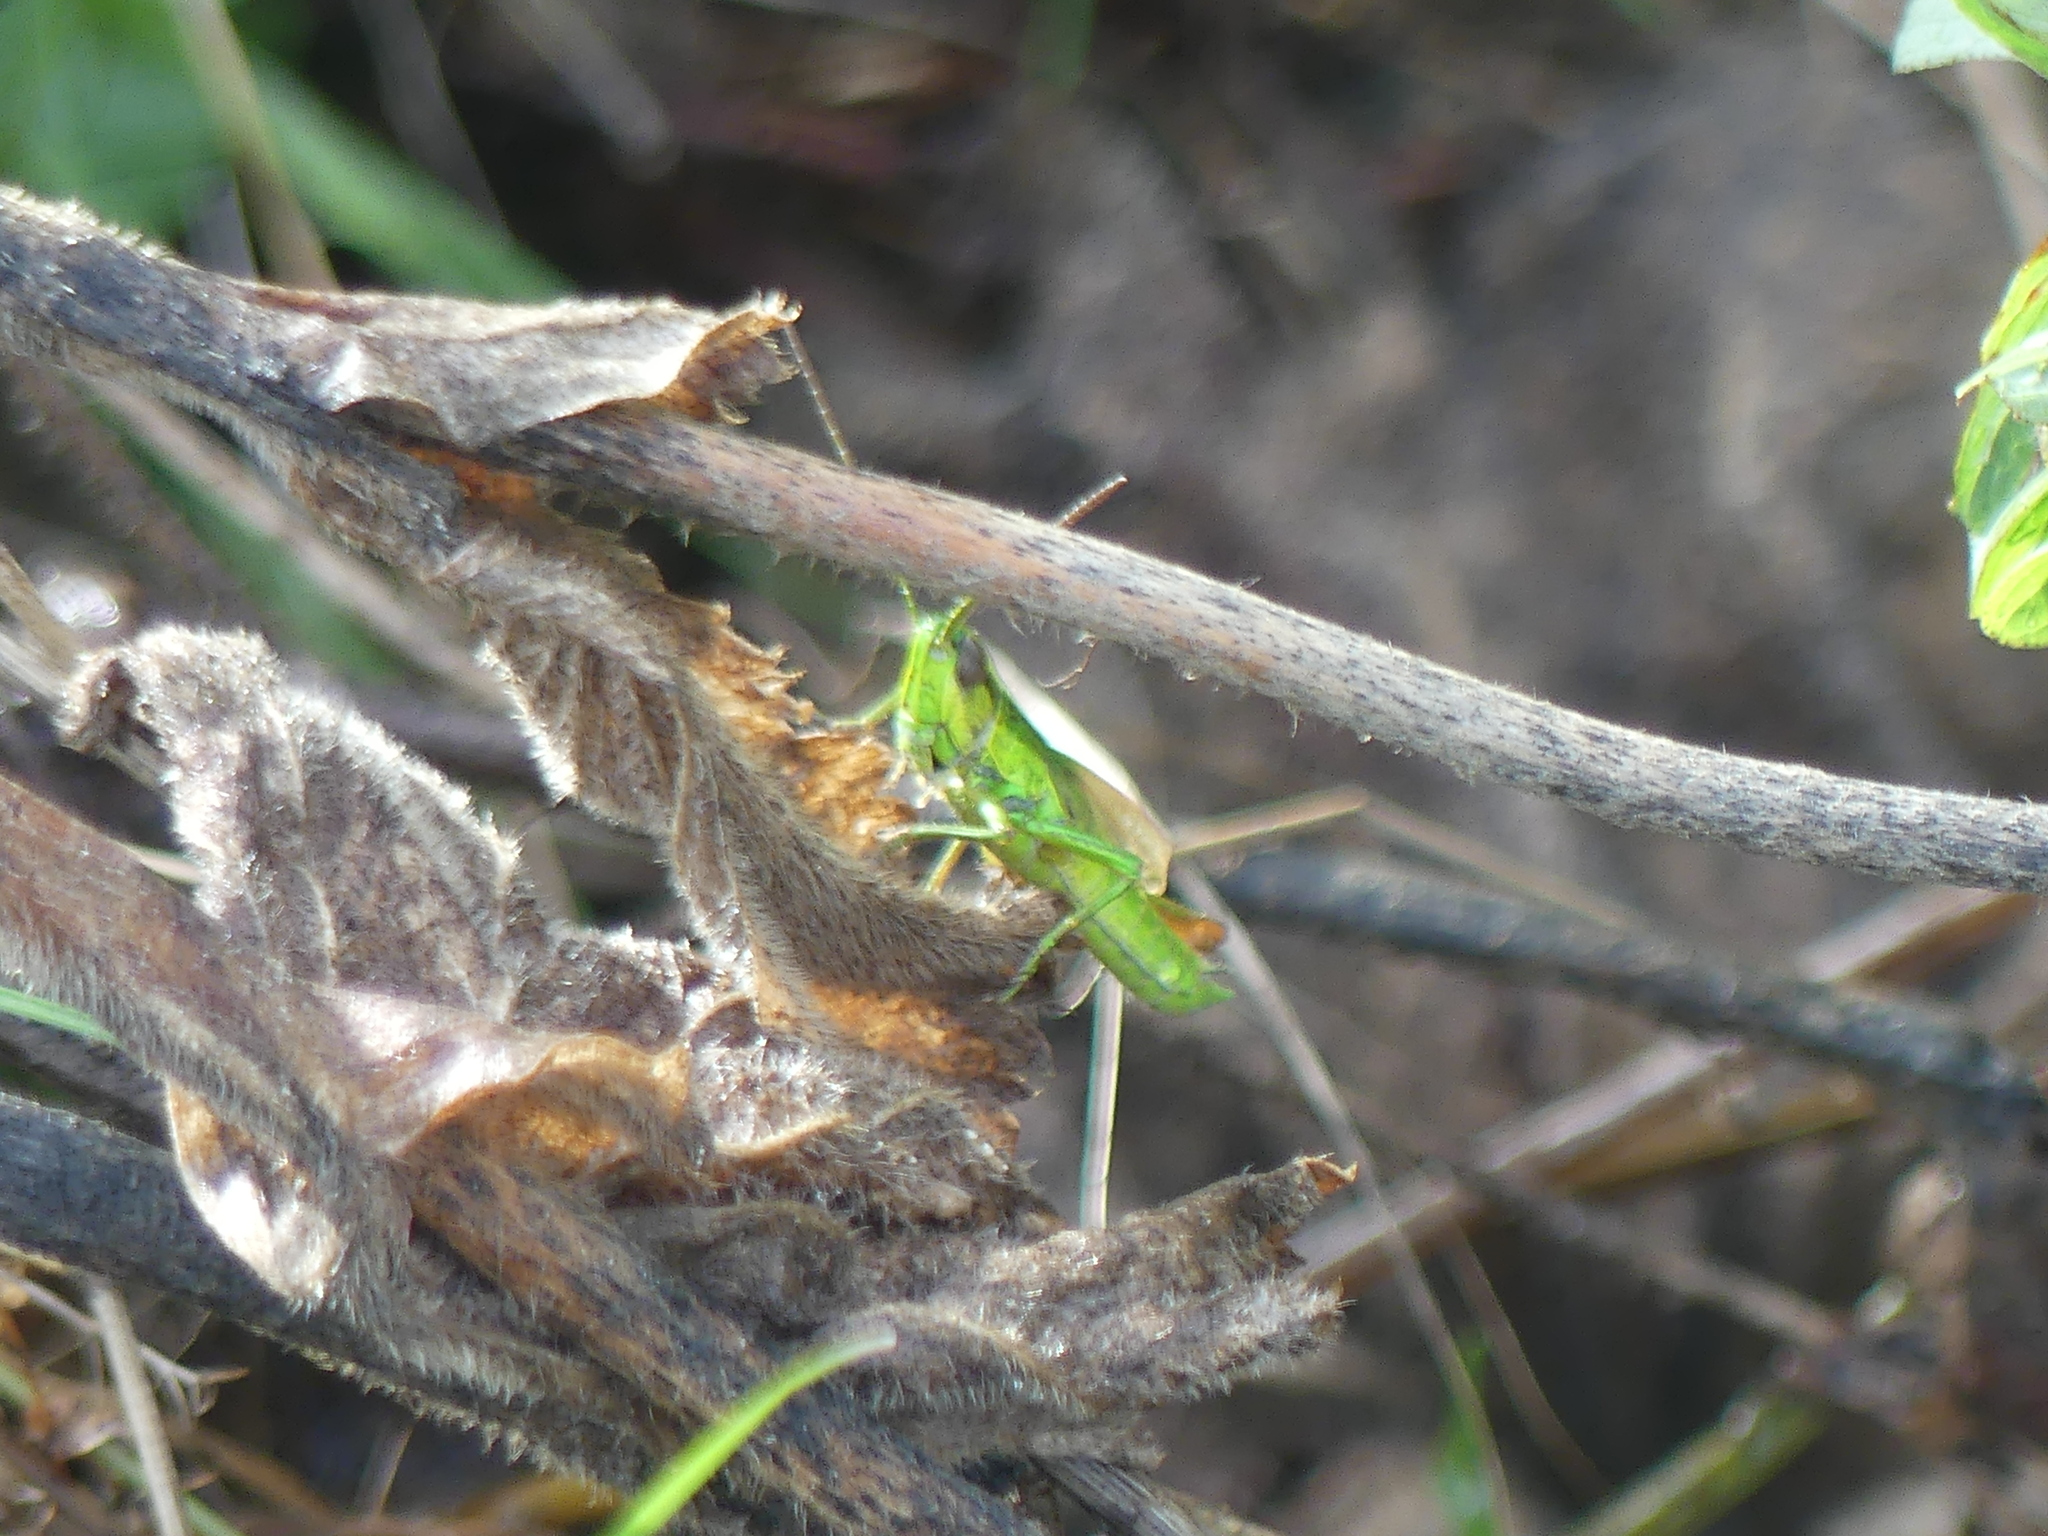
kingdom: Animalia
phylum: Arthropoda
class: Insecta
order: Orthoptera
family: Acrididae
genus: Euthystira
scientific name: Euthystira brachyptera
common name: Small gold grasshopper
